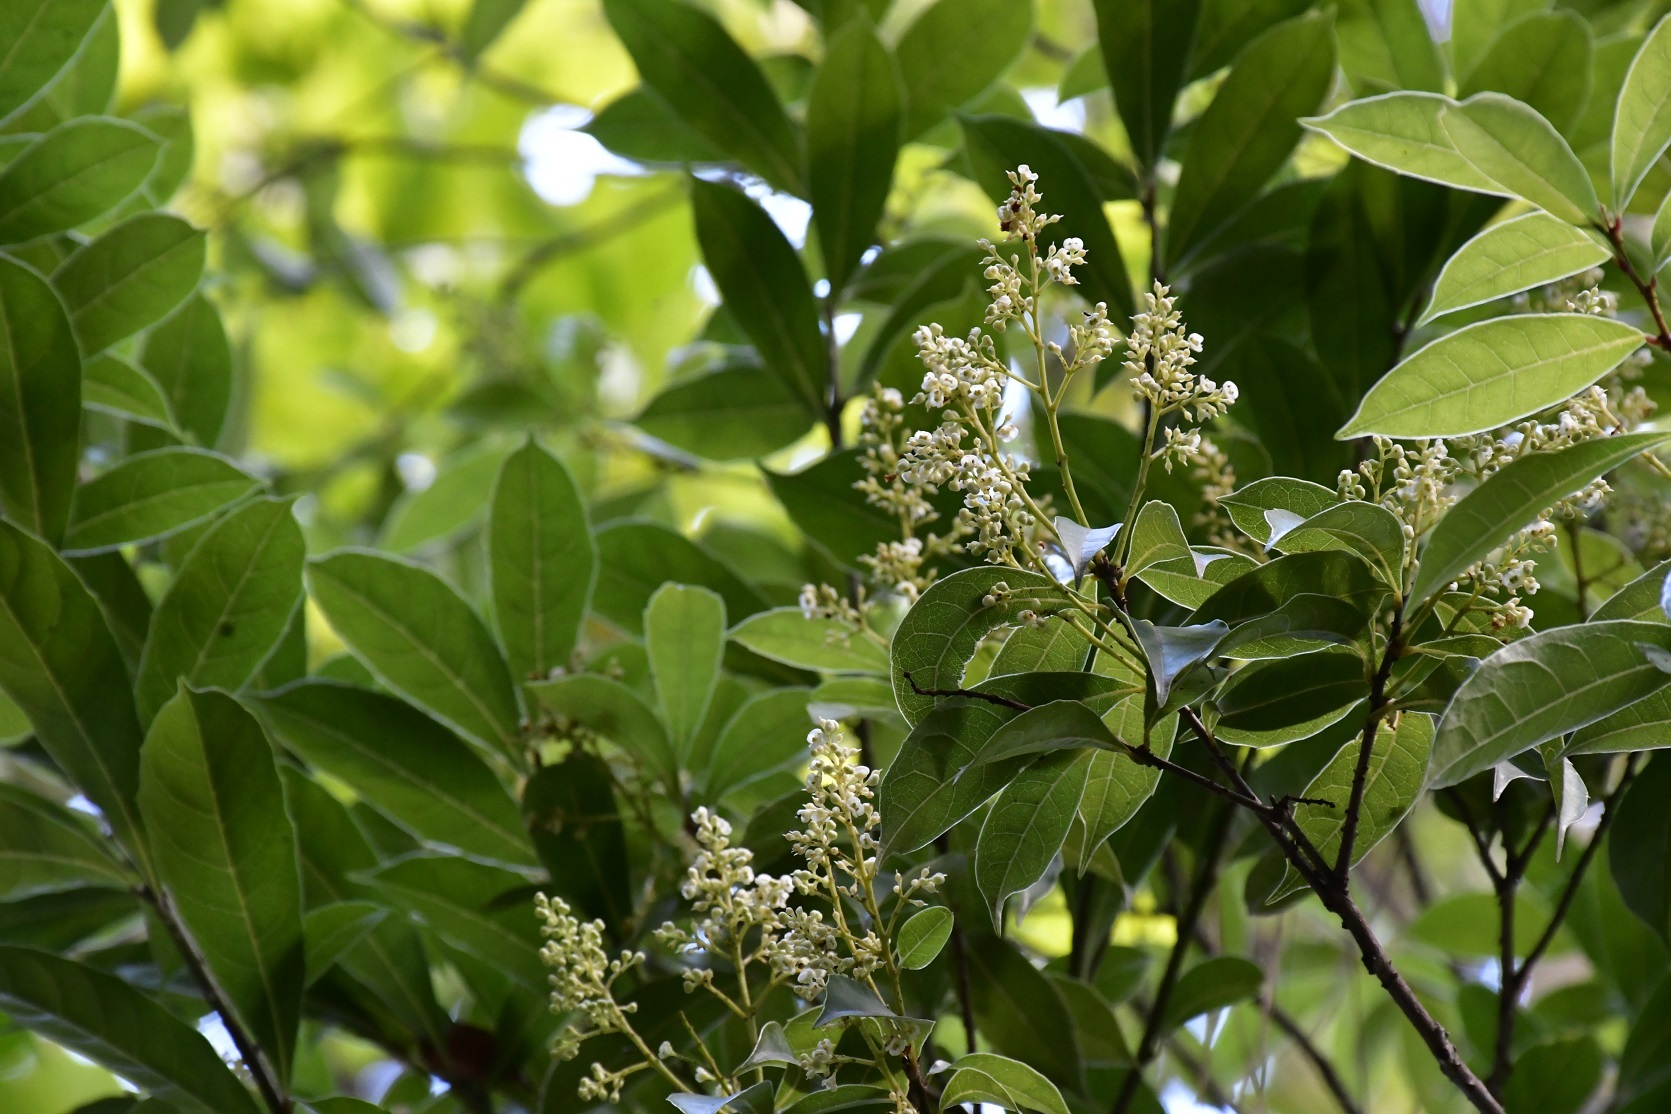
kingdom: Plantae
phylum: Tracheophyta
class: Magnoliopsida
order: Proteales
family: Sabiaceae
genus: Meliosma
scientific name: Meliosma dentata
